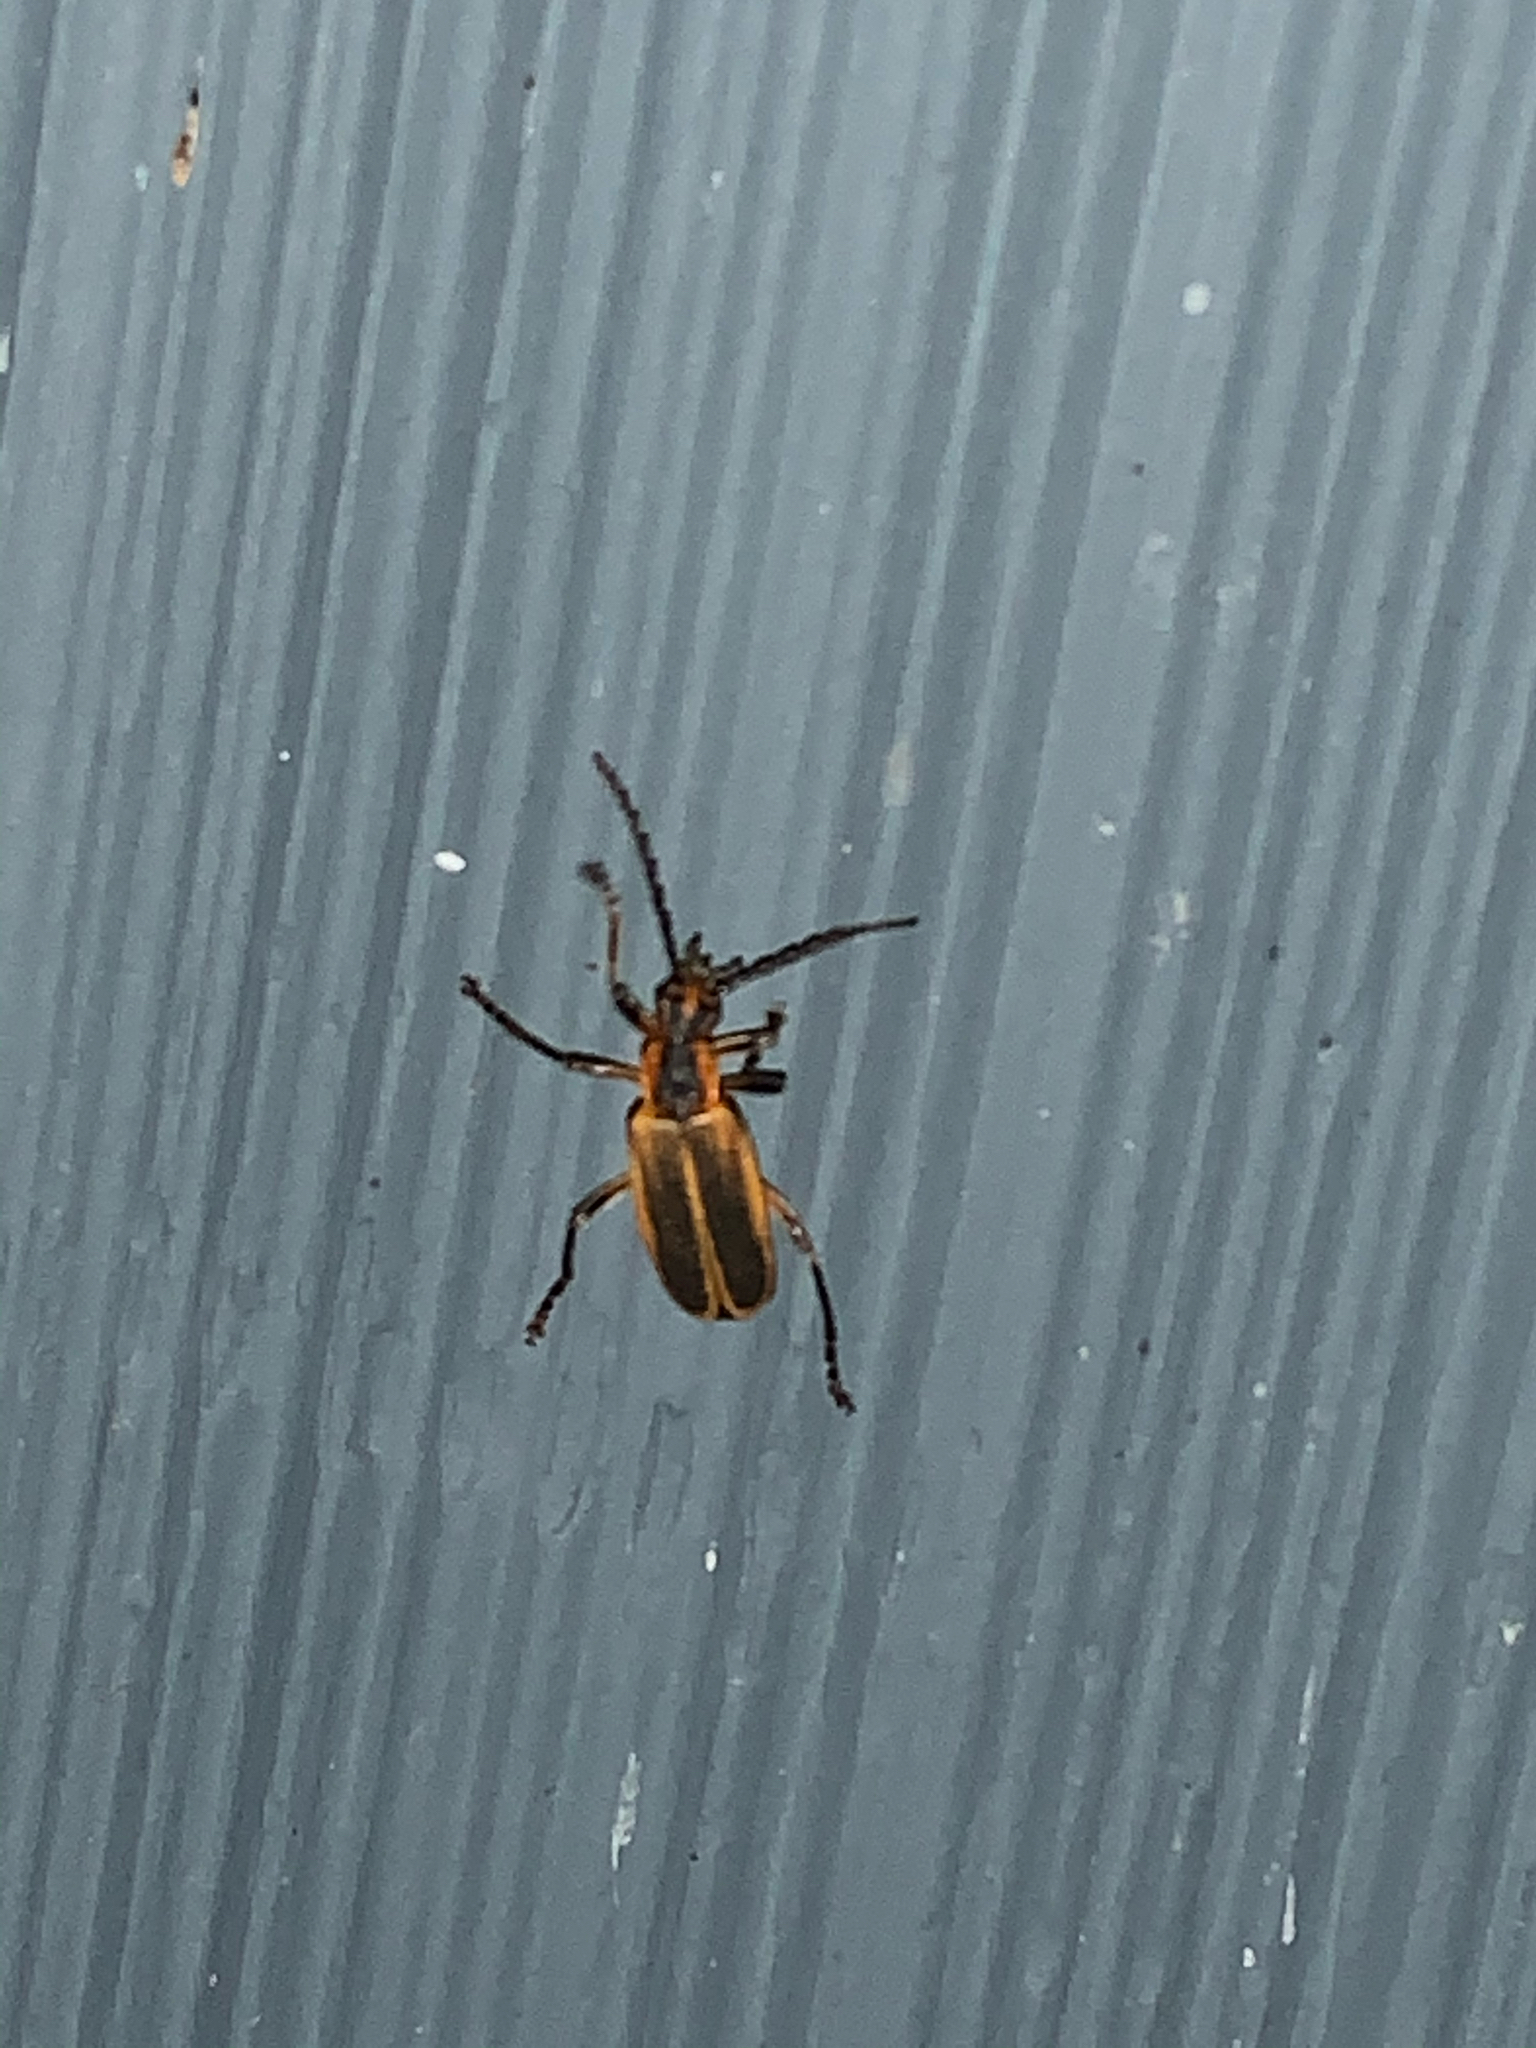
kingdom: Animalia
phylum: Arthropoda
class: Insecta
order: Coleoptera
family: Cantharidae
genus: Chauliognathus
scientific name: Chauliognathus marginatus
